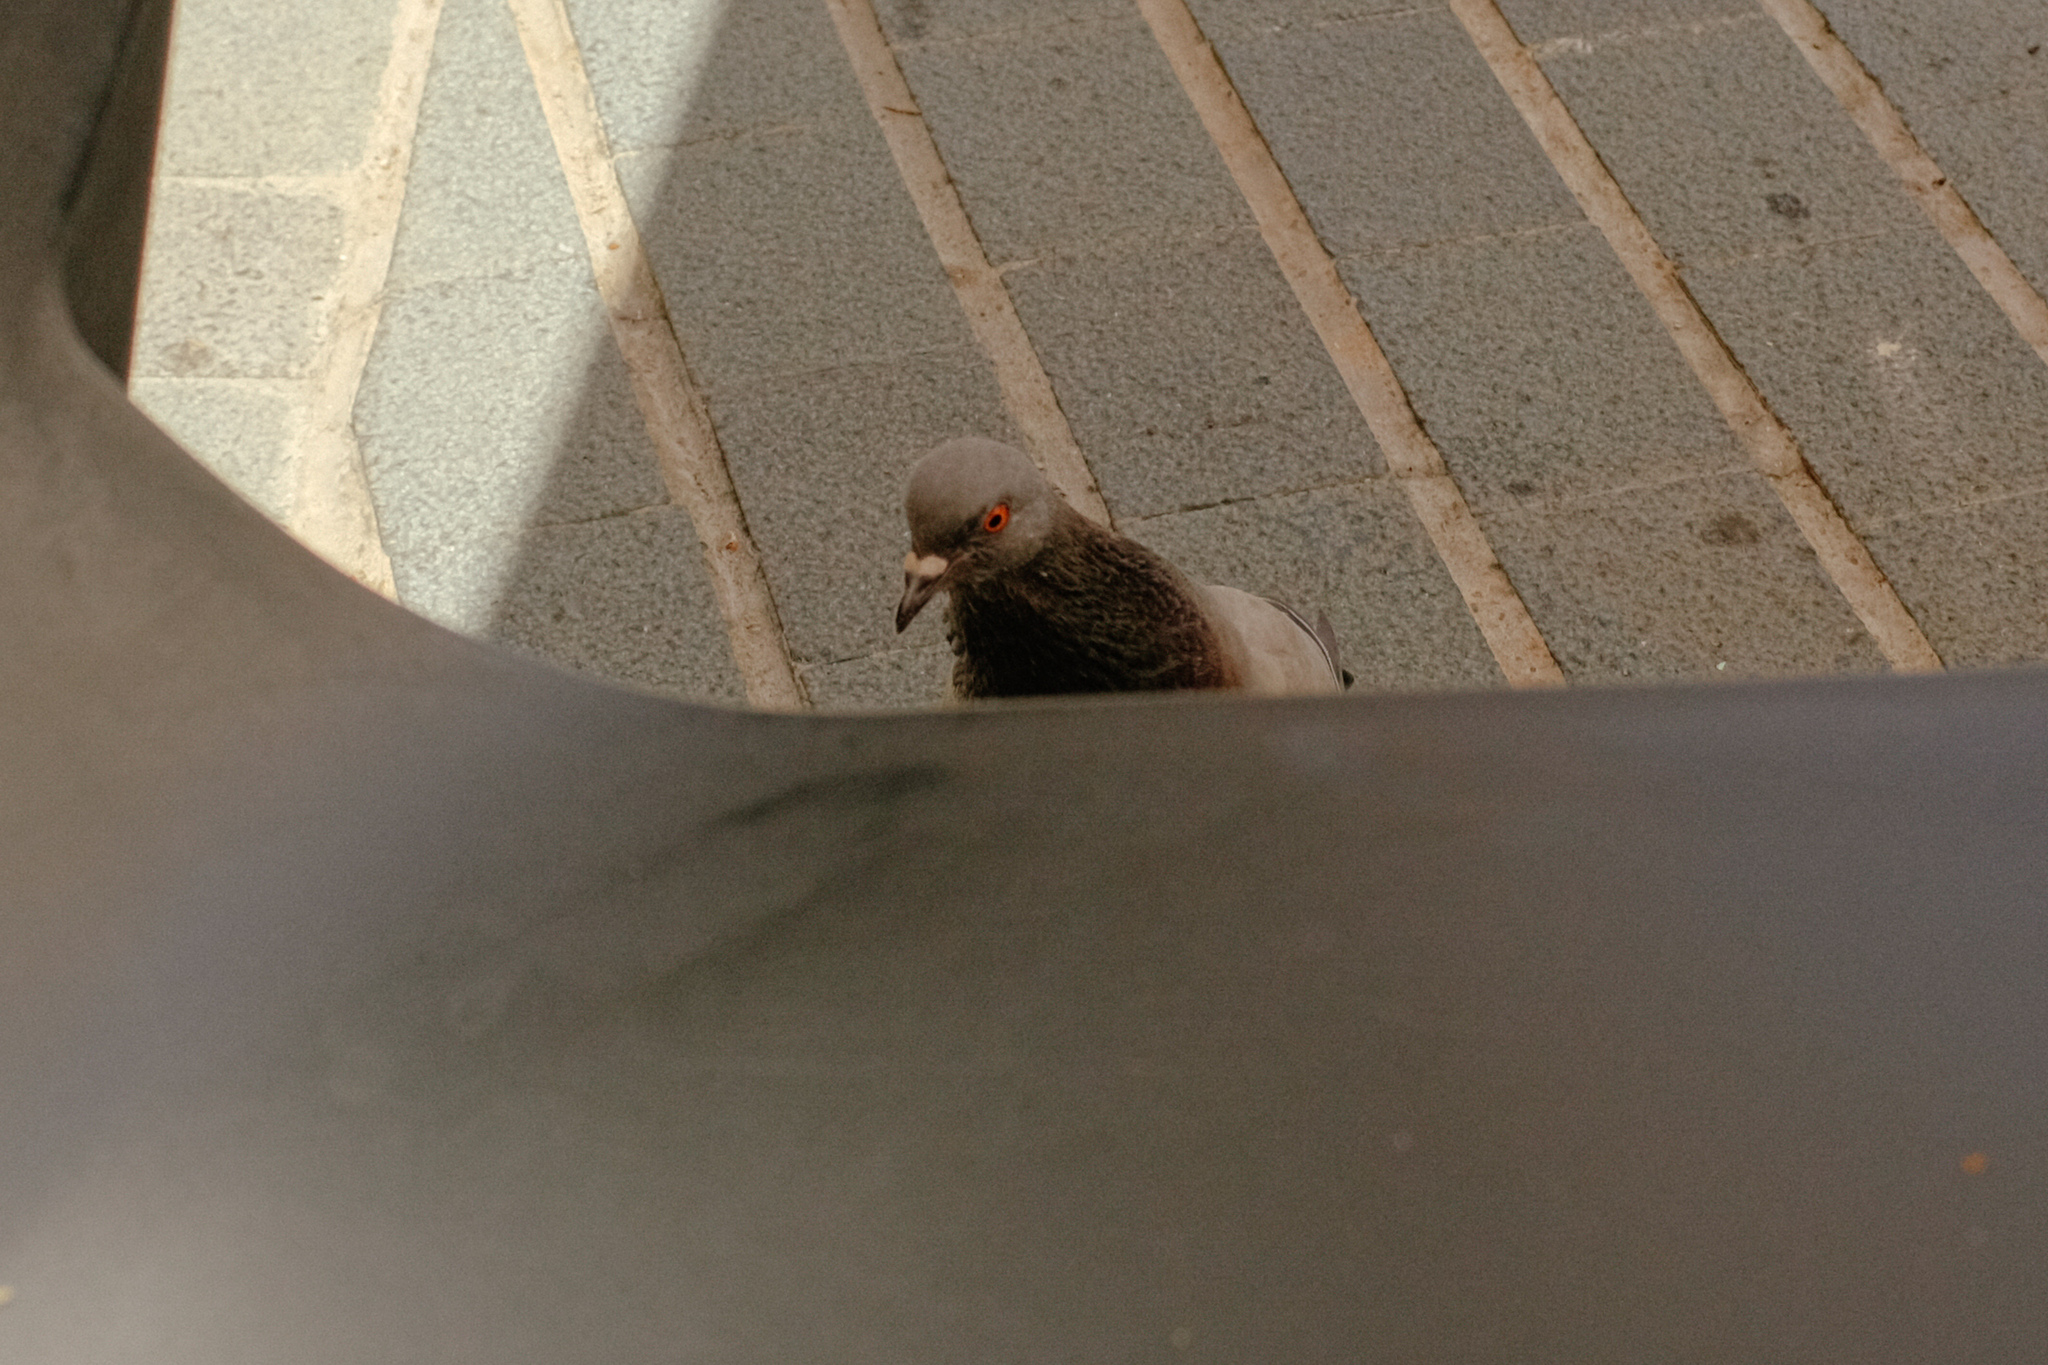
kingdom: Animalia
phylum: Chordata
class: Aves
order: Columbiformes
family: Columbidae
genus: Columba
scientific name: Columba livia
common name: Rock pigeon
